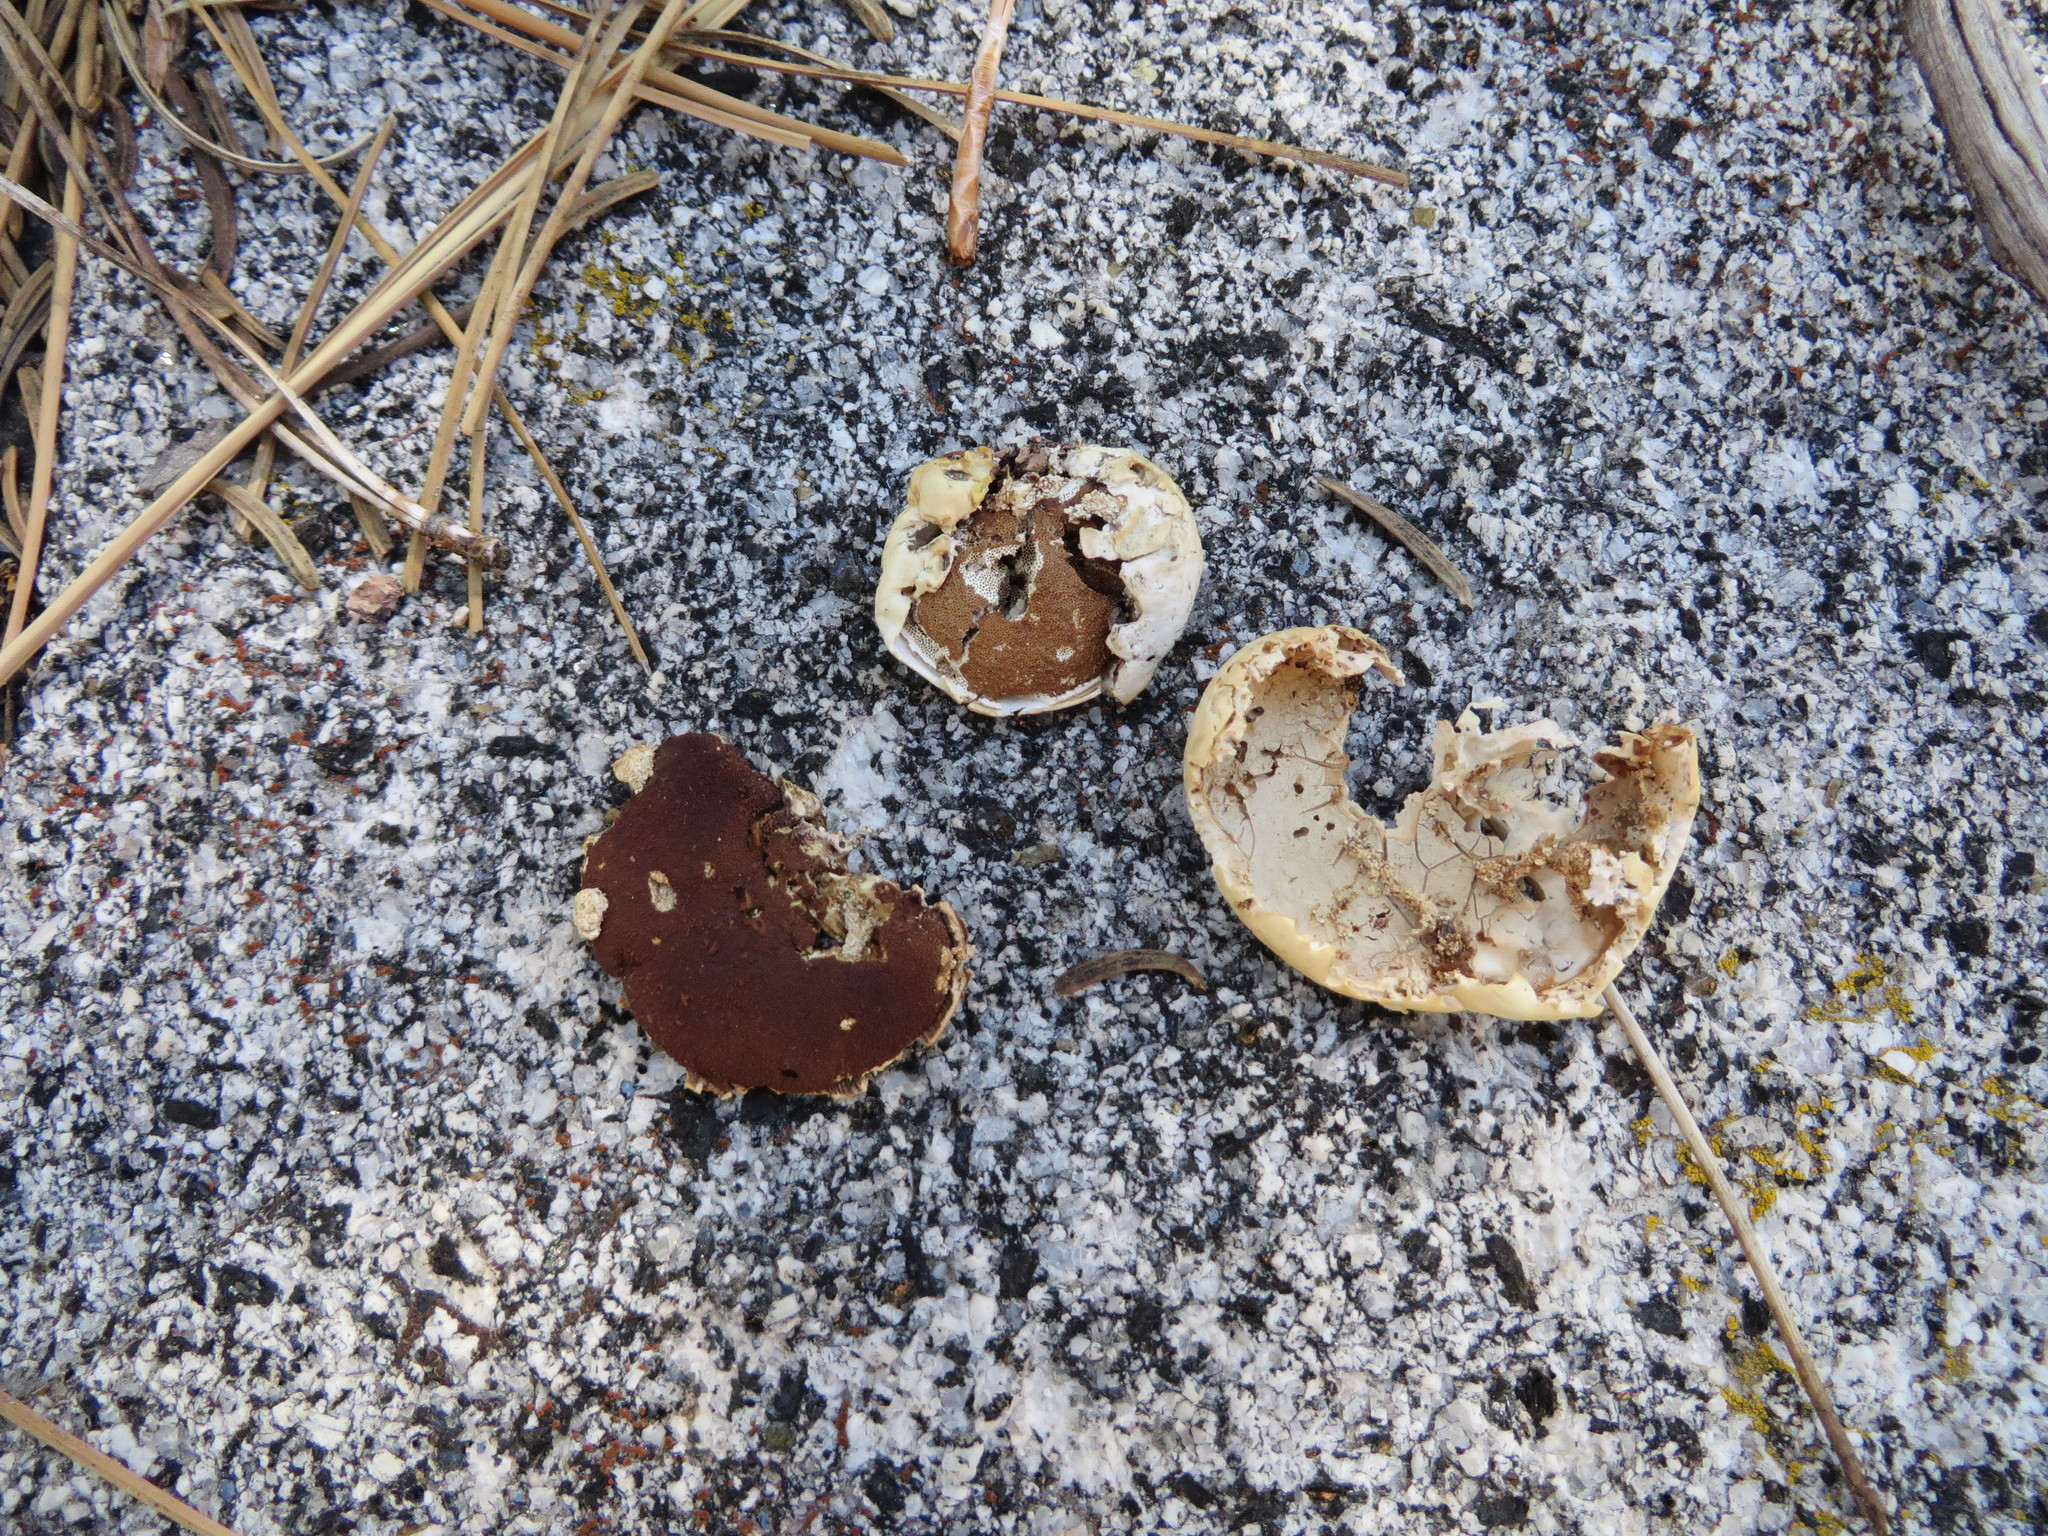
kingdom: Fungi
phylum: Basidiomycota
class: Agaricomycetes
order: Polyporales
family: Polyporaceae
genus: Cryptoporus
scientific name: Cryptoporus volvatus
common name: Veiled polypore
